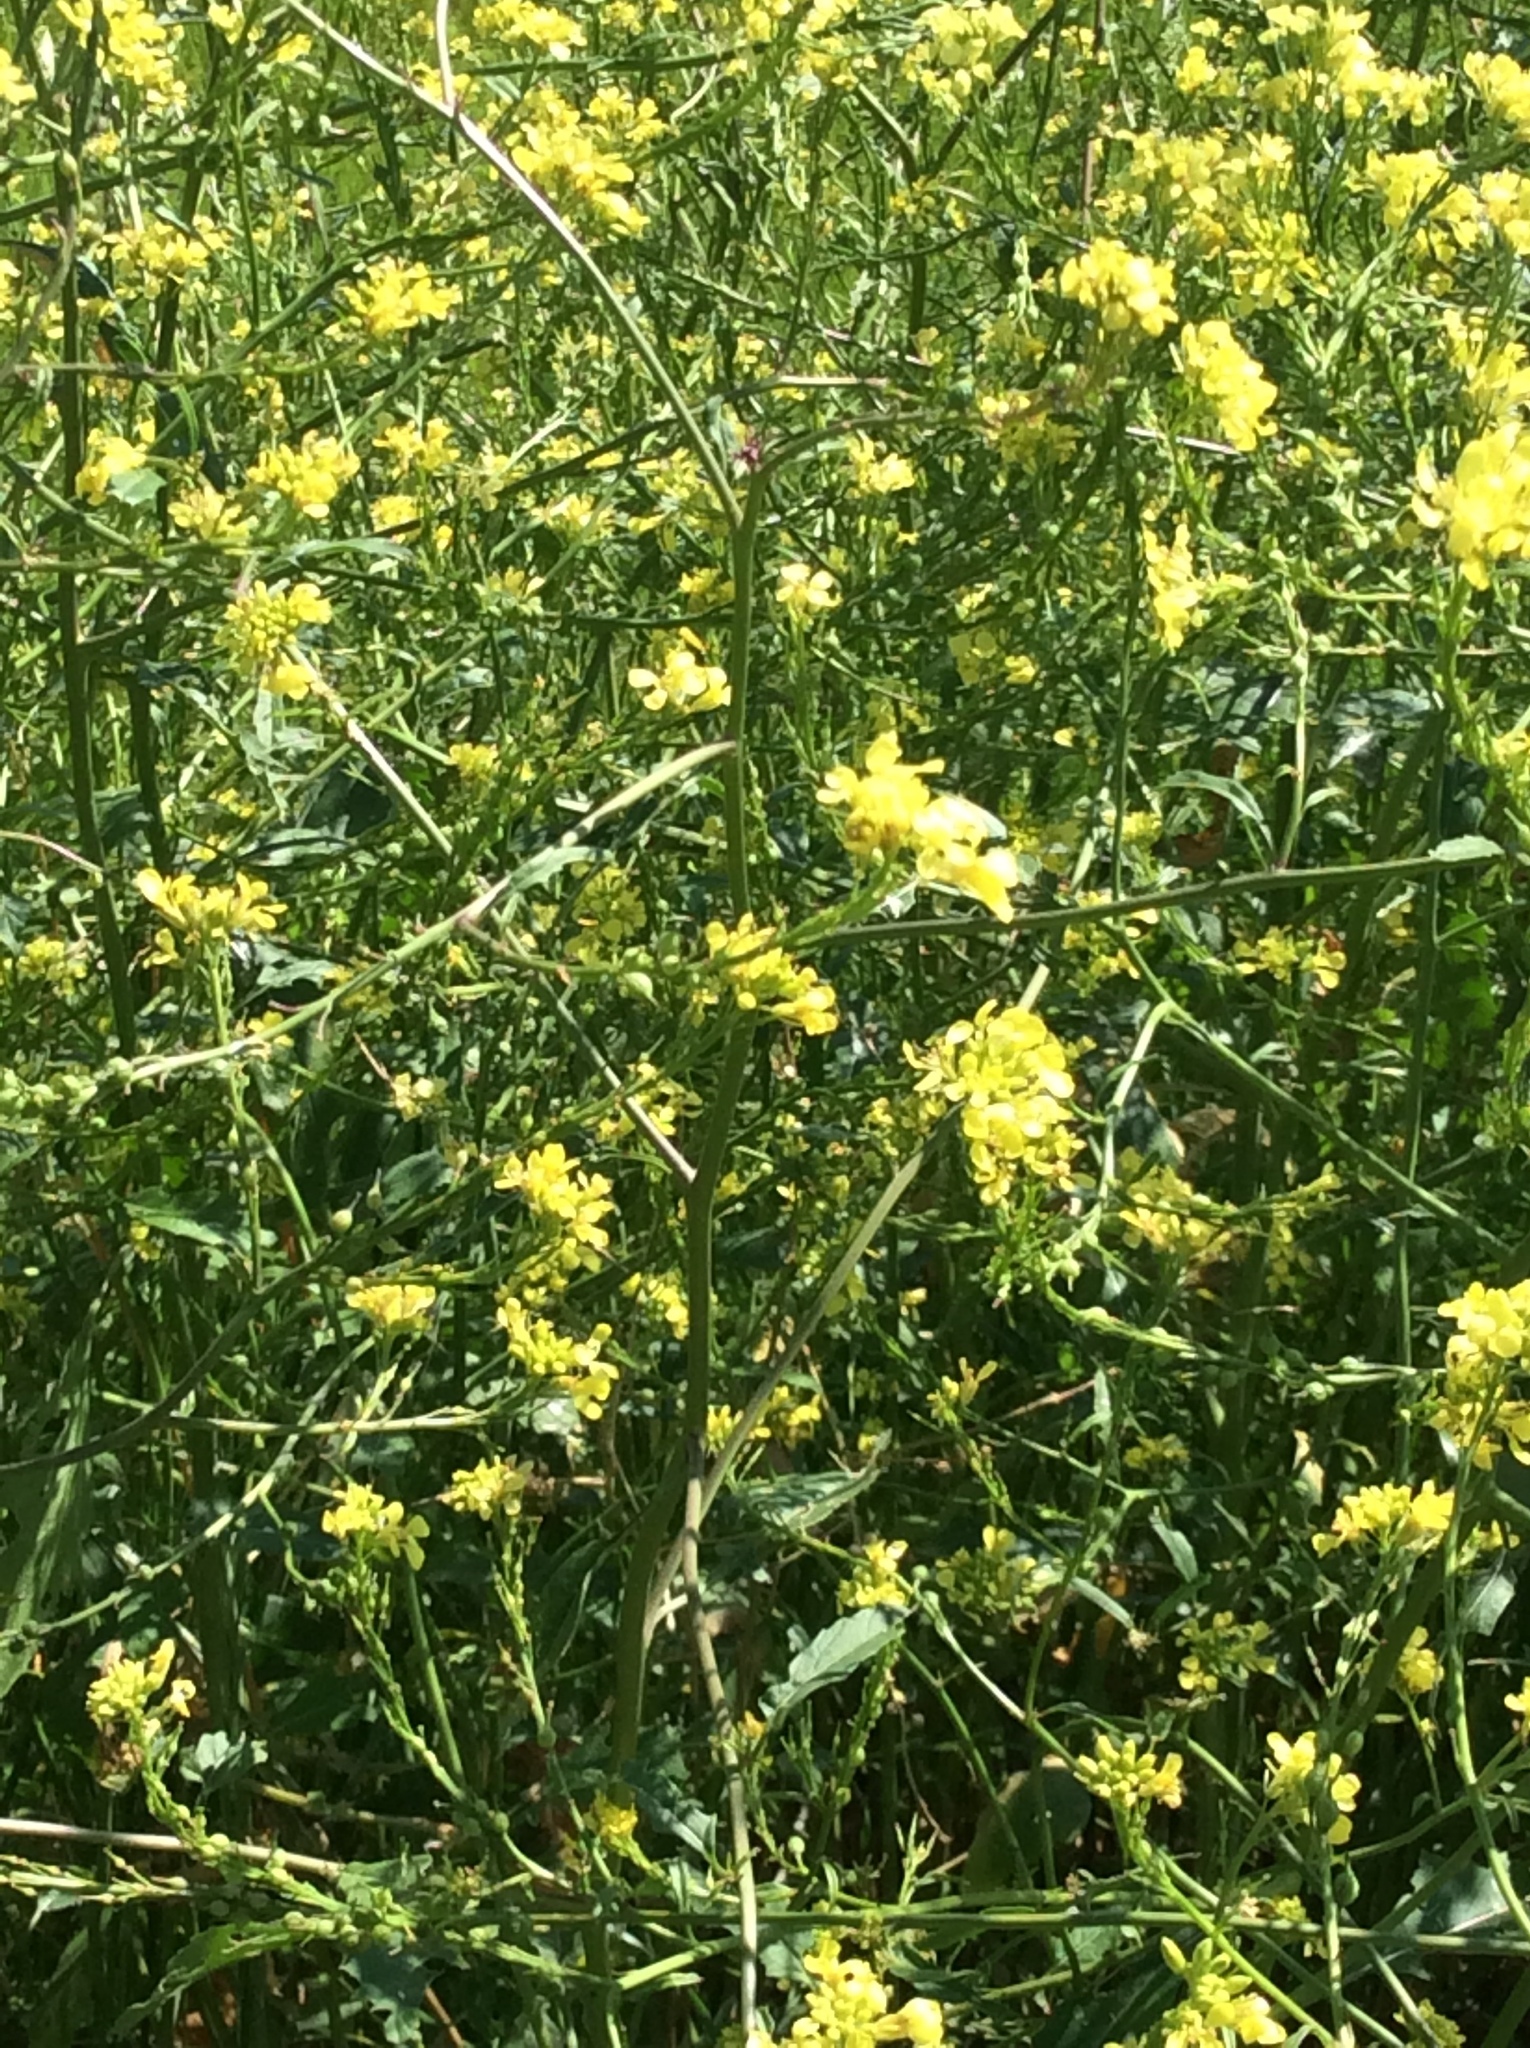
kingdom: Plantae
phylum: Tracheophyta
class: Magnoliopsida
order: Brassicales
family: Brassicaceae
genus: Rapistrum
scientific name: Rapistrum rugosum
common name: Annual bastardcabbage
